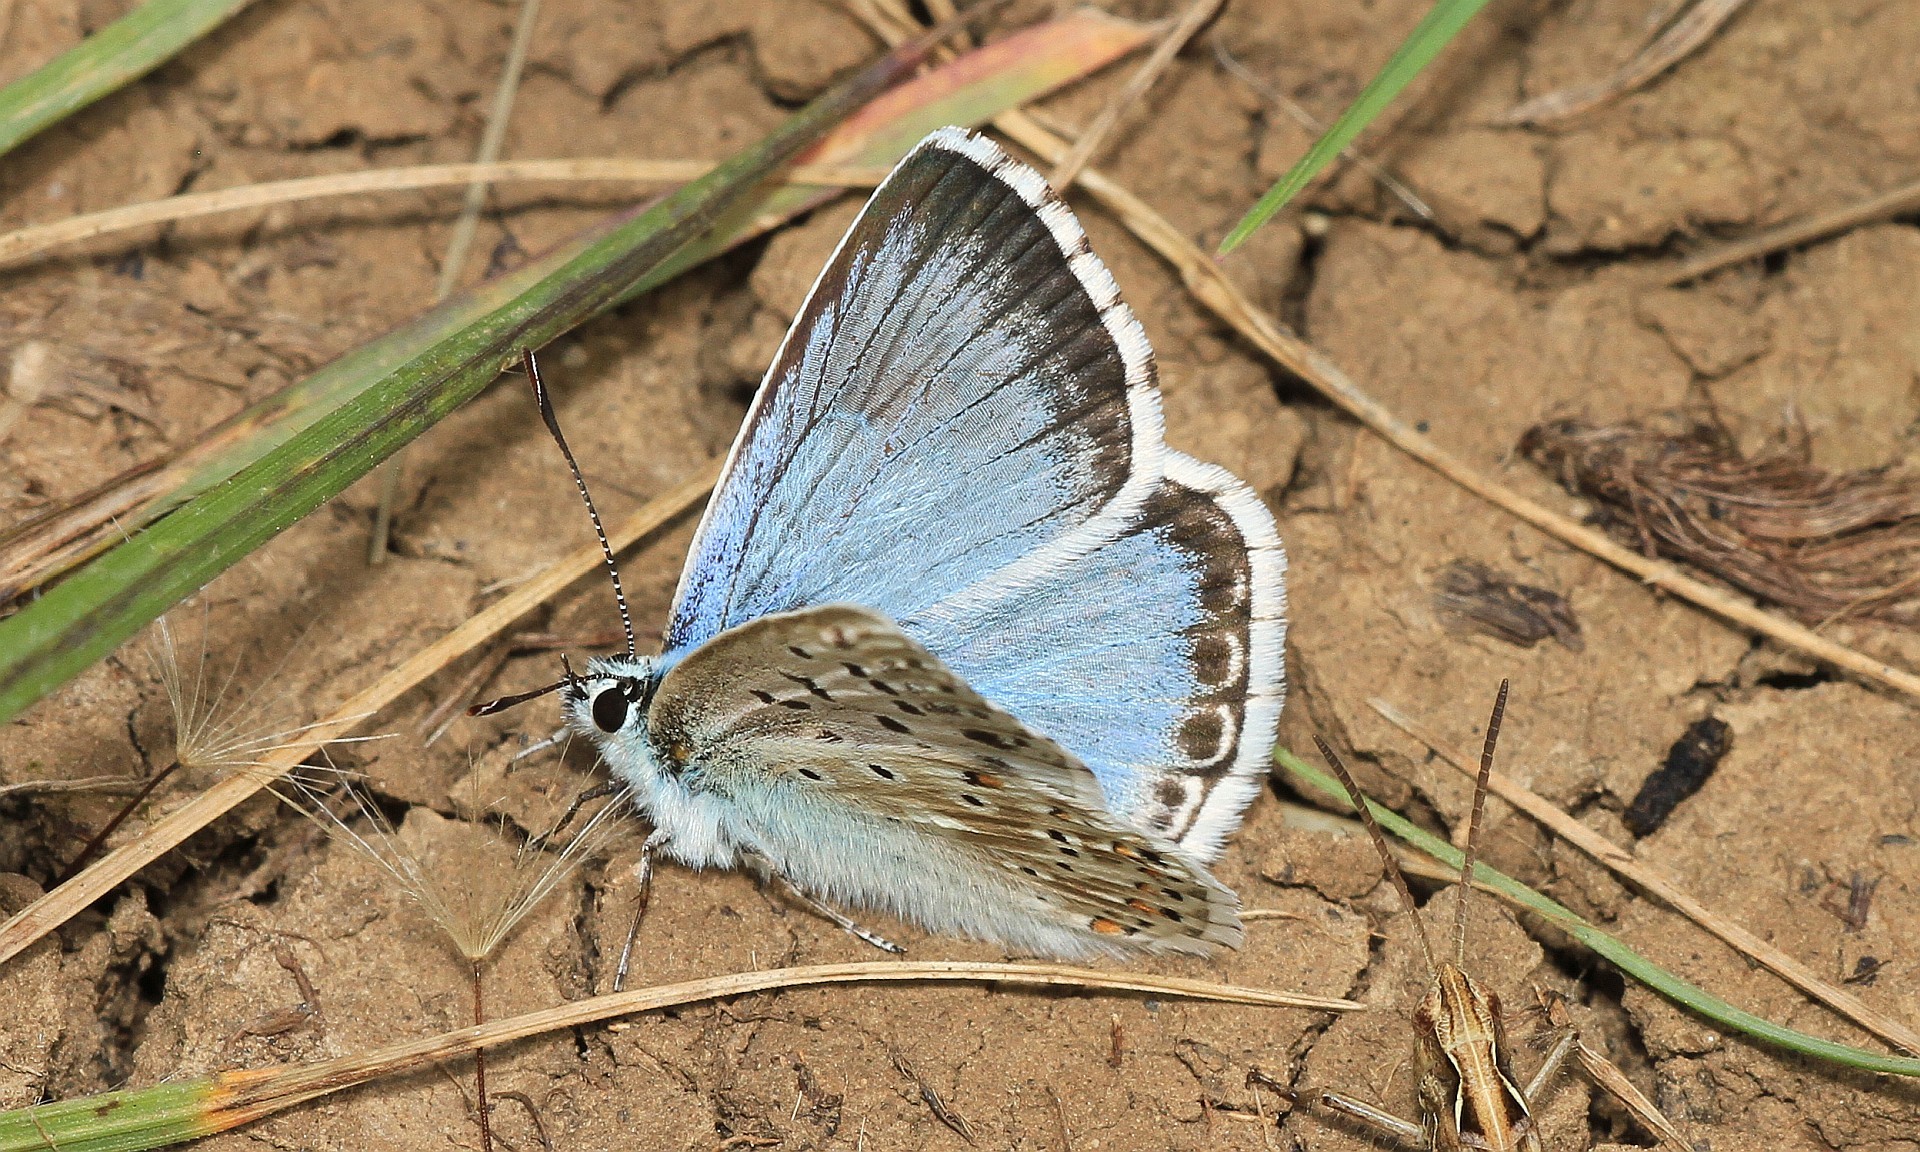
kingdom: Animalia
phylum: Arthropoda
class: Insecta
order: Lepidoptera
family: Lycaenidae
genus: Lysandra
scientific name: Lysandra coridon
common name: Chalkhill blue
